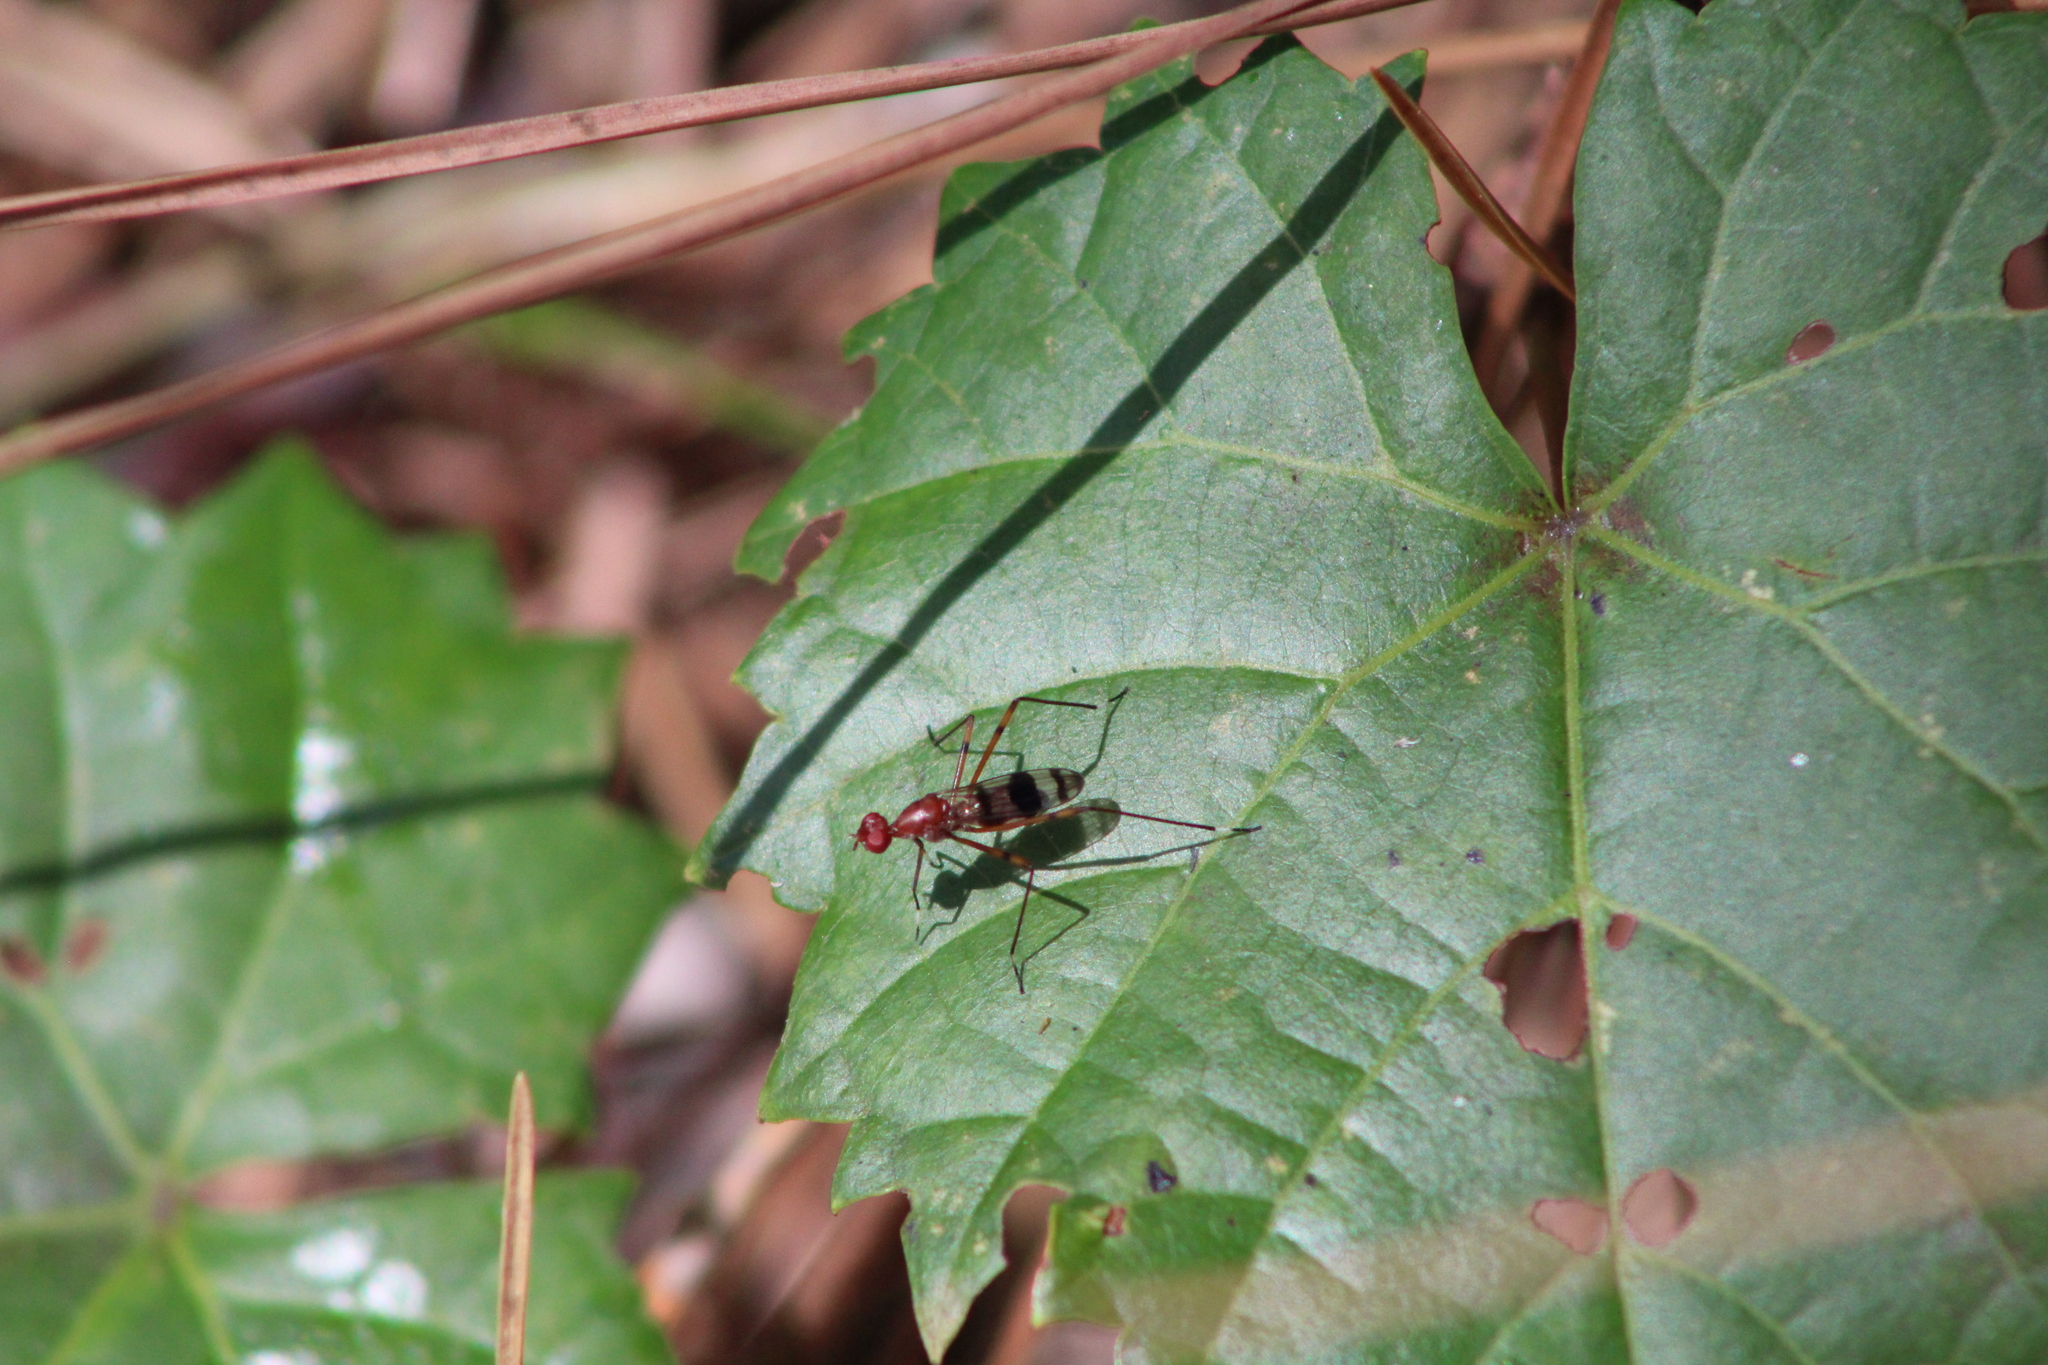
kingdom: Animalia
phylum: Arthropoda
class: Insecta
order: Diptera
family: Micropezidae
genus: Hoplocheiloma
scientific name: Hoplocheiloma totliana
